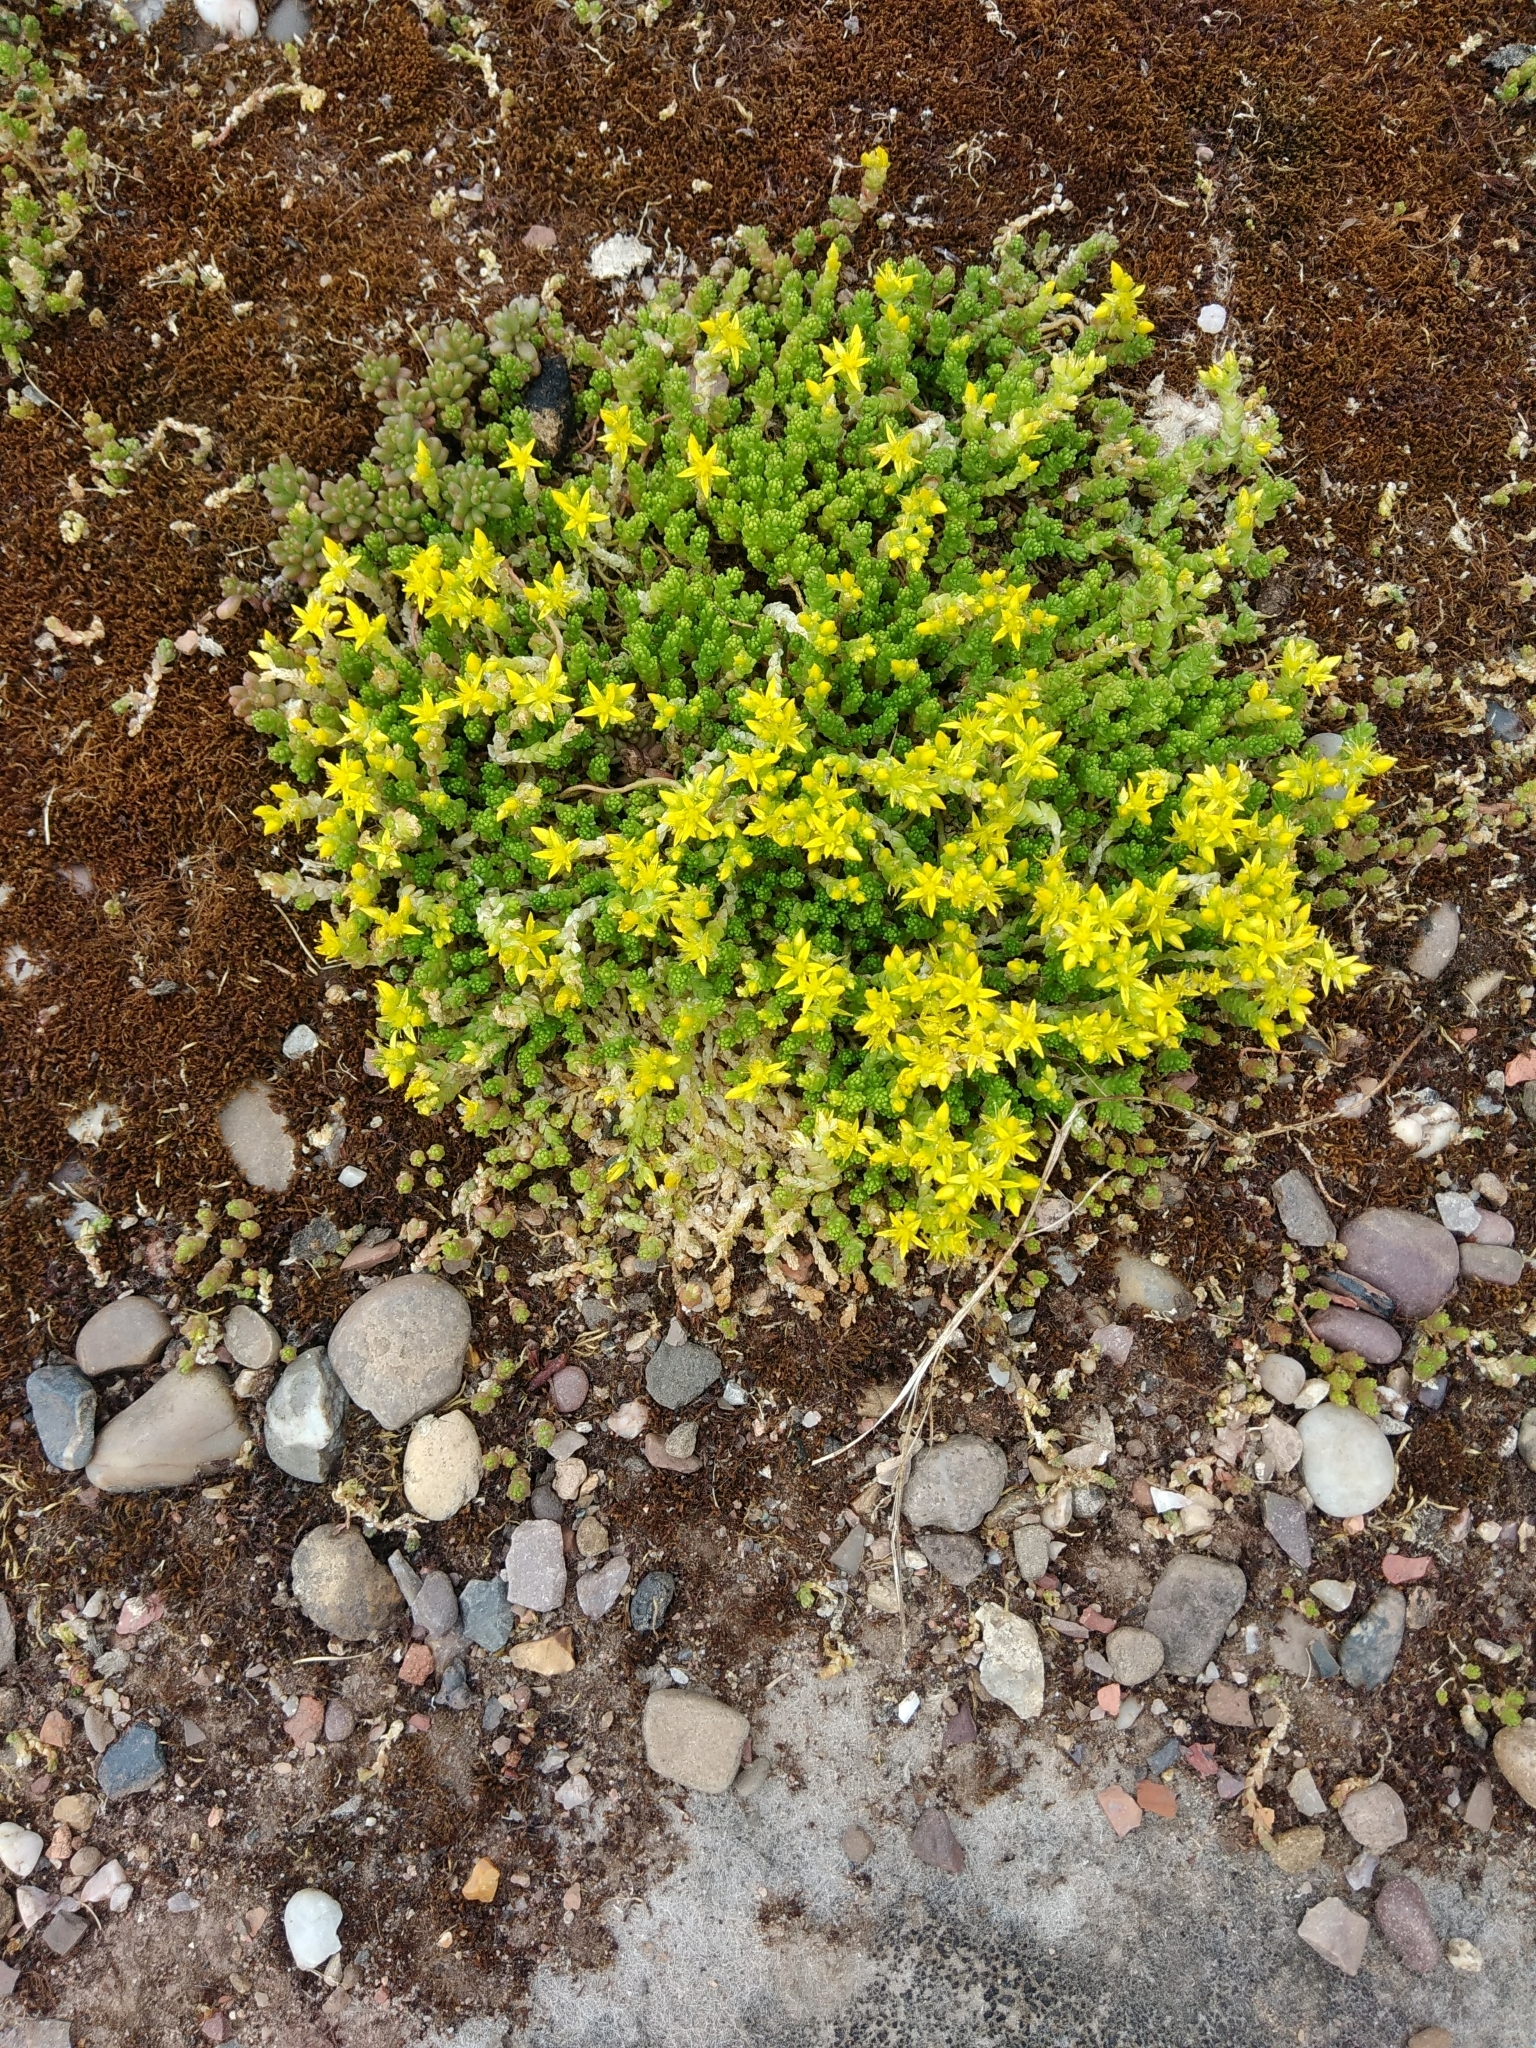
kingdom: Plantae
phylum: Tracheophyta
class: Magnoliopsida
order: Saxifragales
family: Crassulaceae
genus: Sedum
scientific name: Sedum acre
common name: Biting stonecrop
